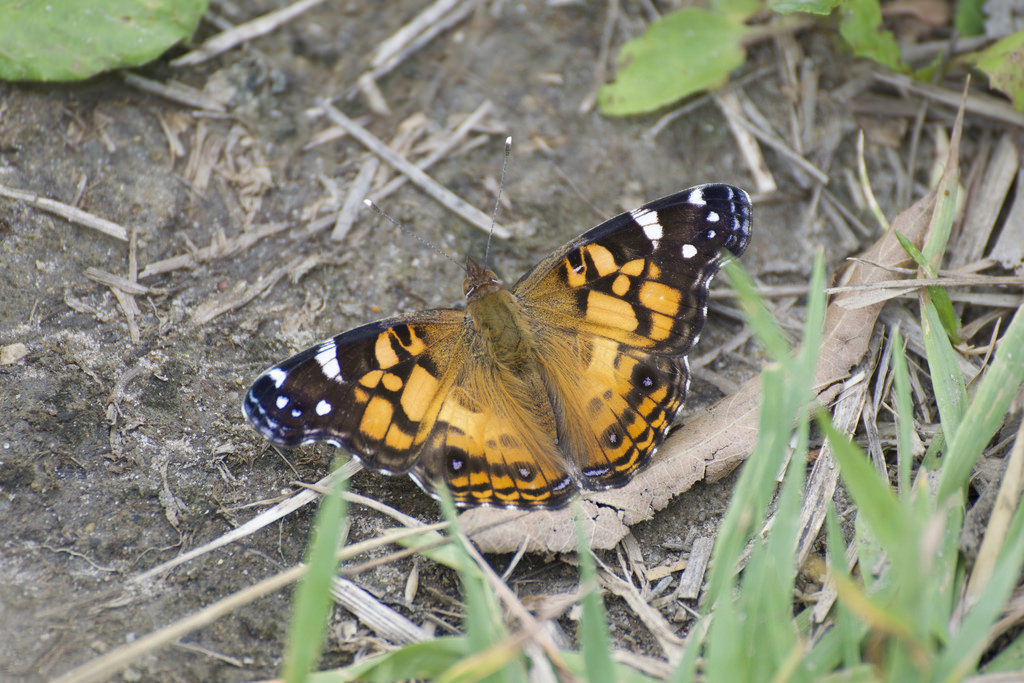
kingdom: Animalia
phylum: Arthropoda
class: Insecta
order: Lepidoptera
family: Nymphalidae
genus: Vanessa
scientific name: Vanessa virginiensis
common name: American lady
